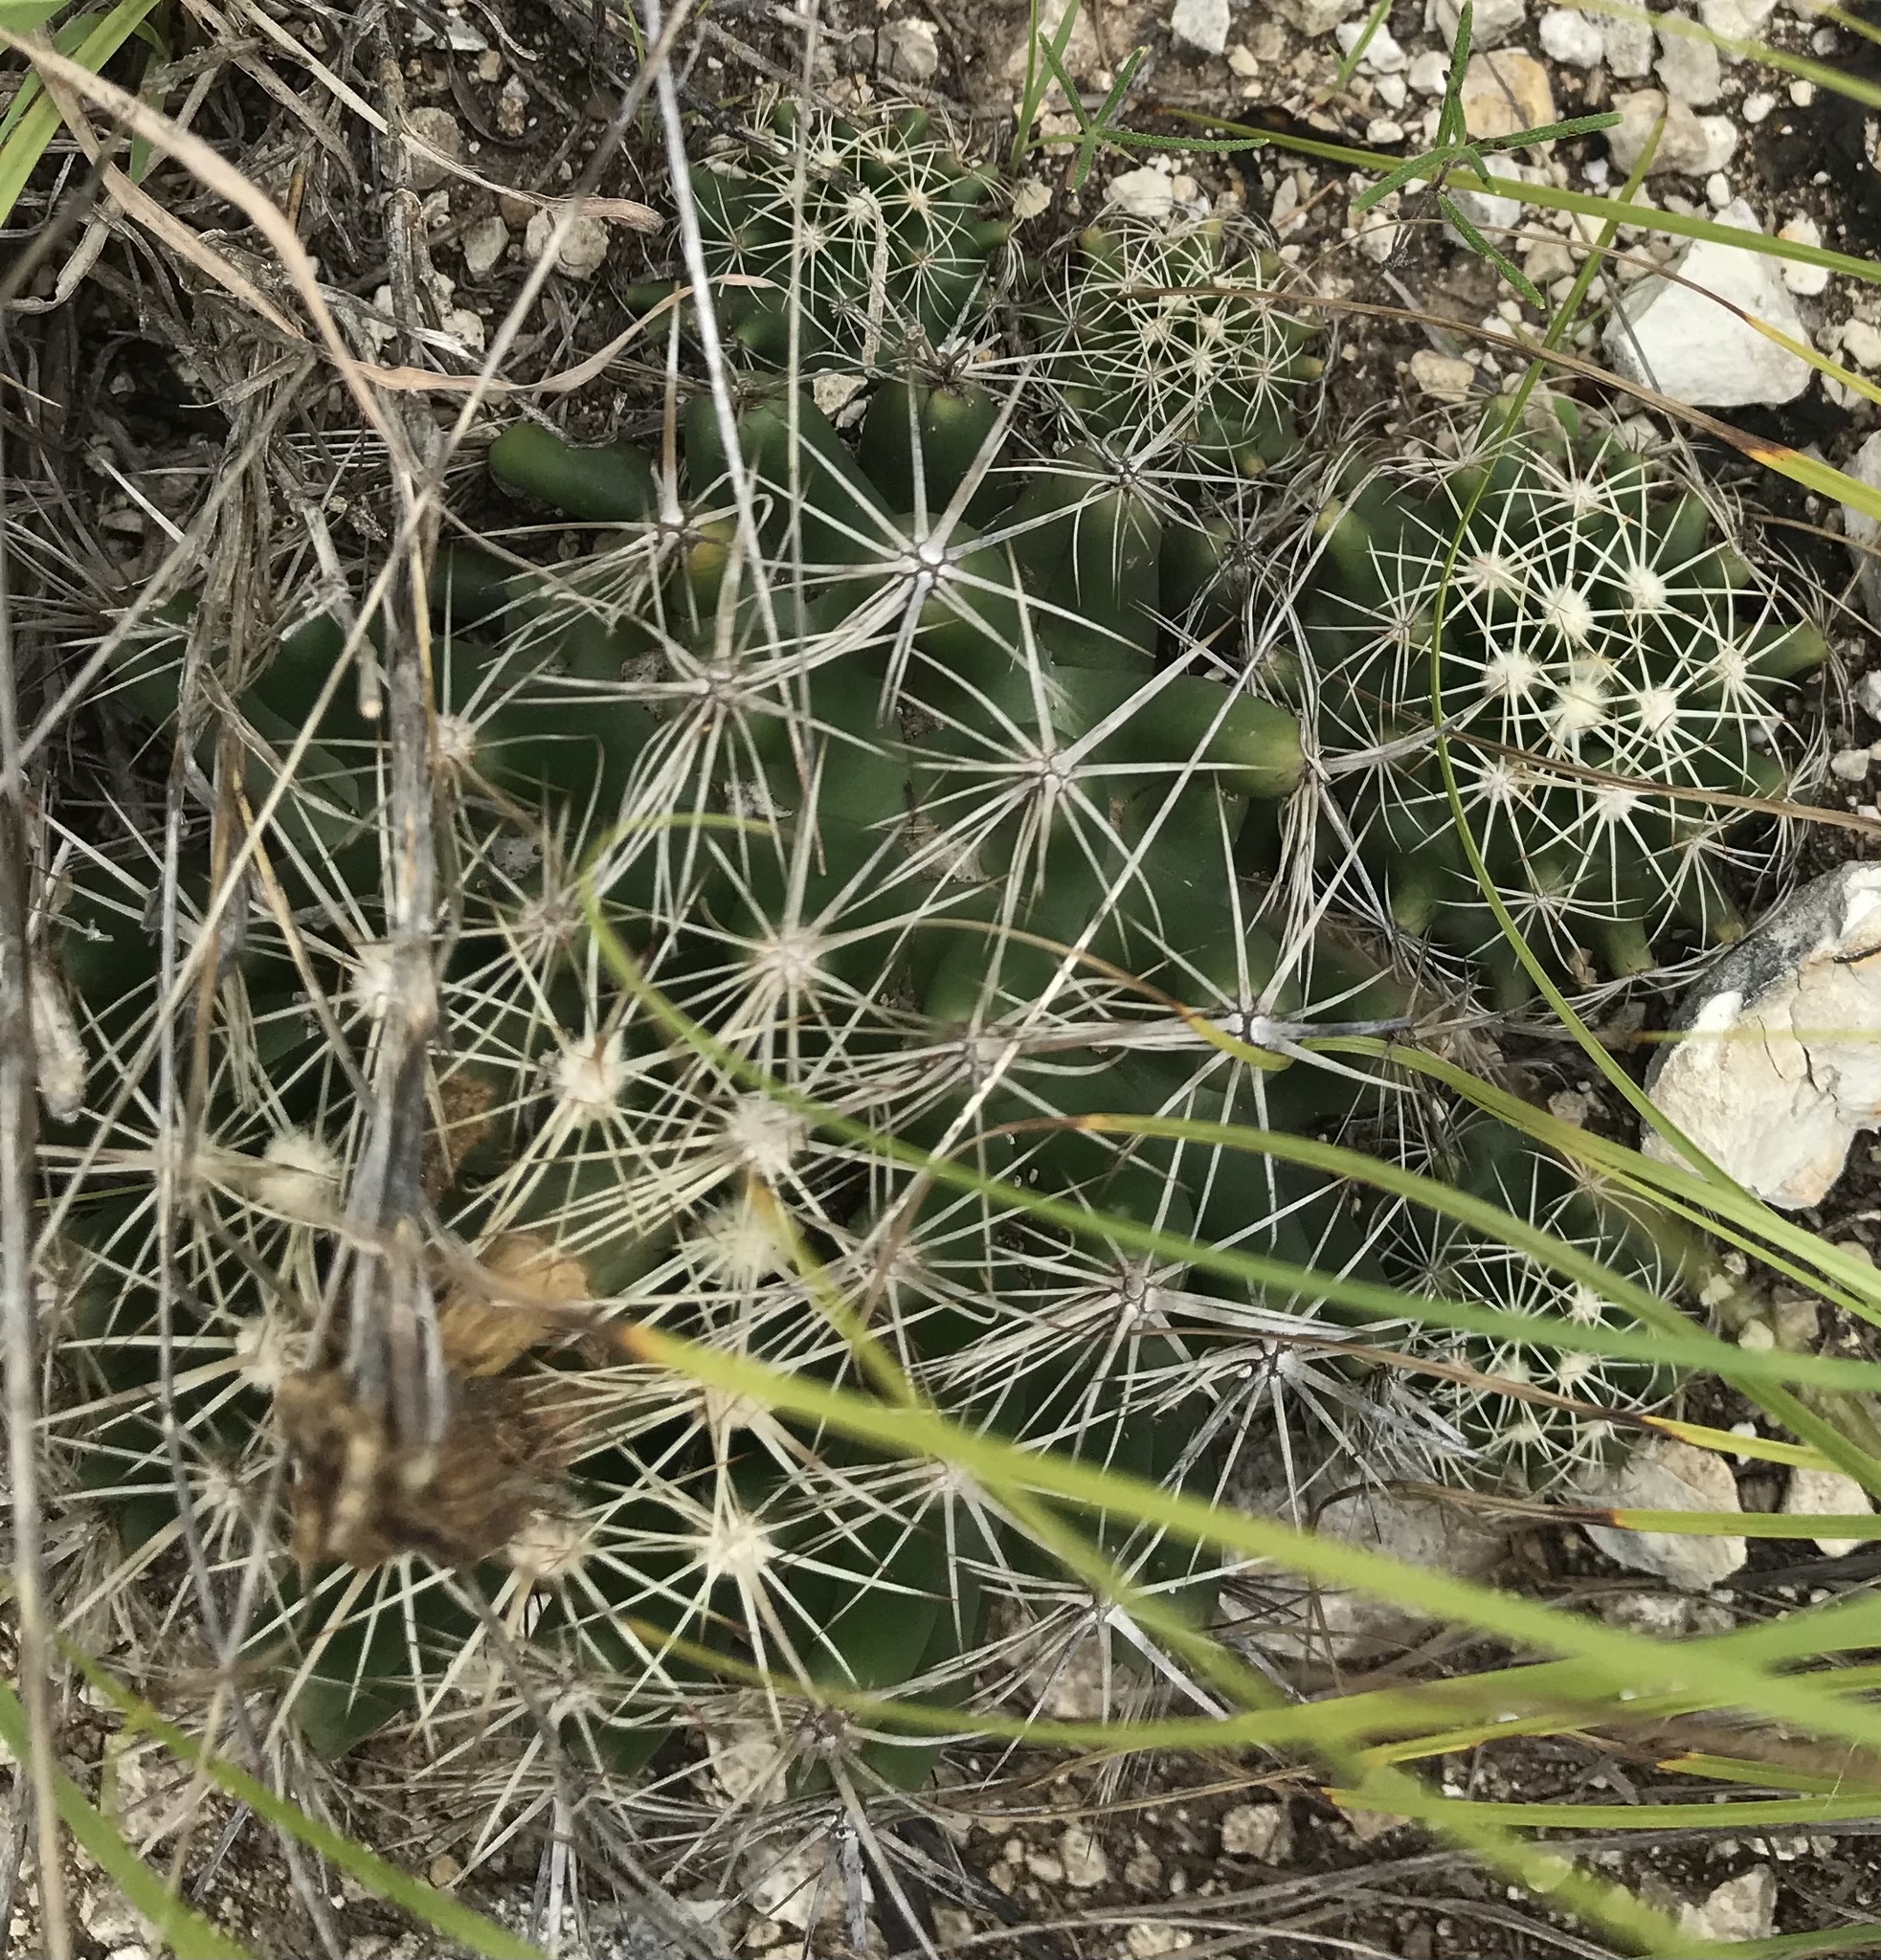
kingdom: Plantae
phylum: Tracheophyta
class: Magnoliopsida
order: Caryophyllales
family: Cactaceae
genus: Coryphantha
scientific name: Coryphantha sulcata
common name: Finger cactus
